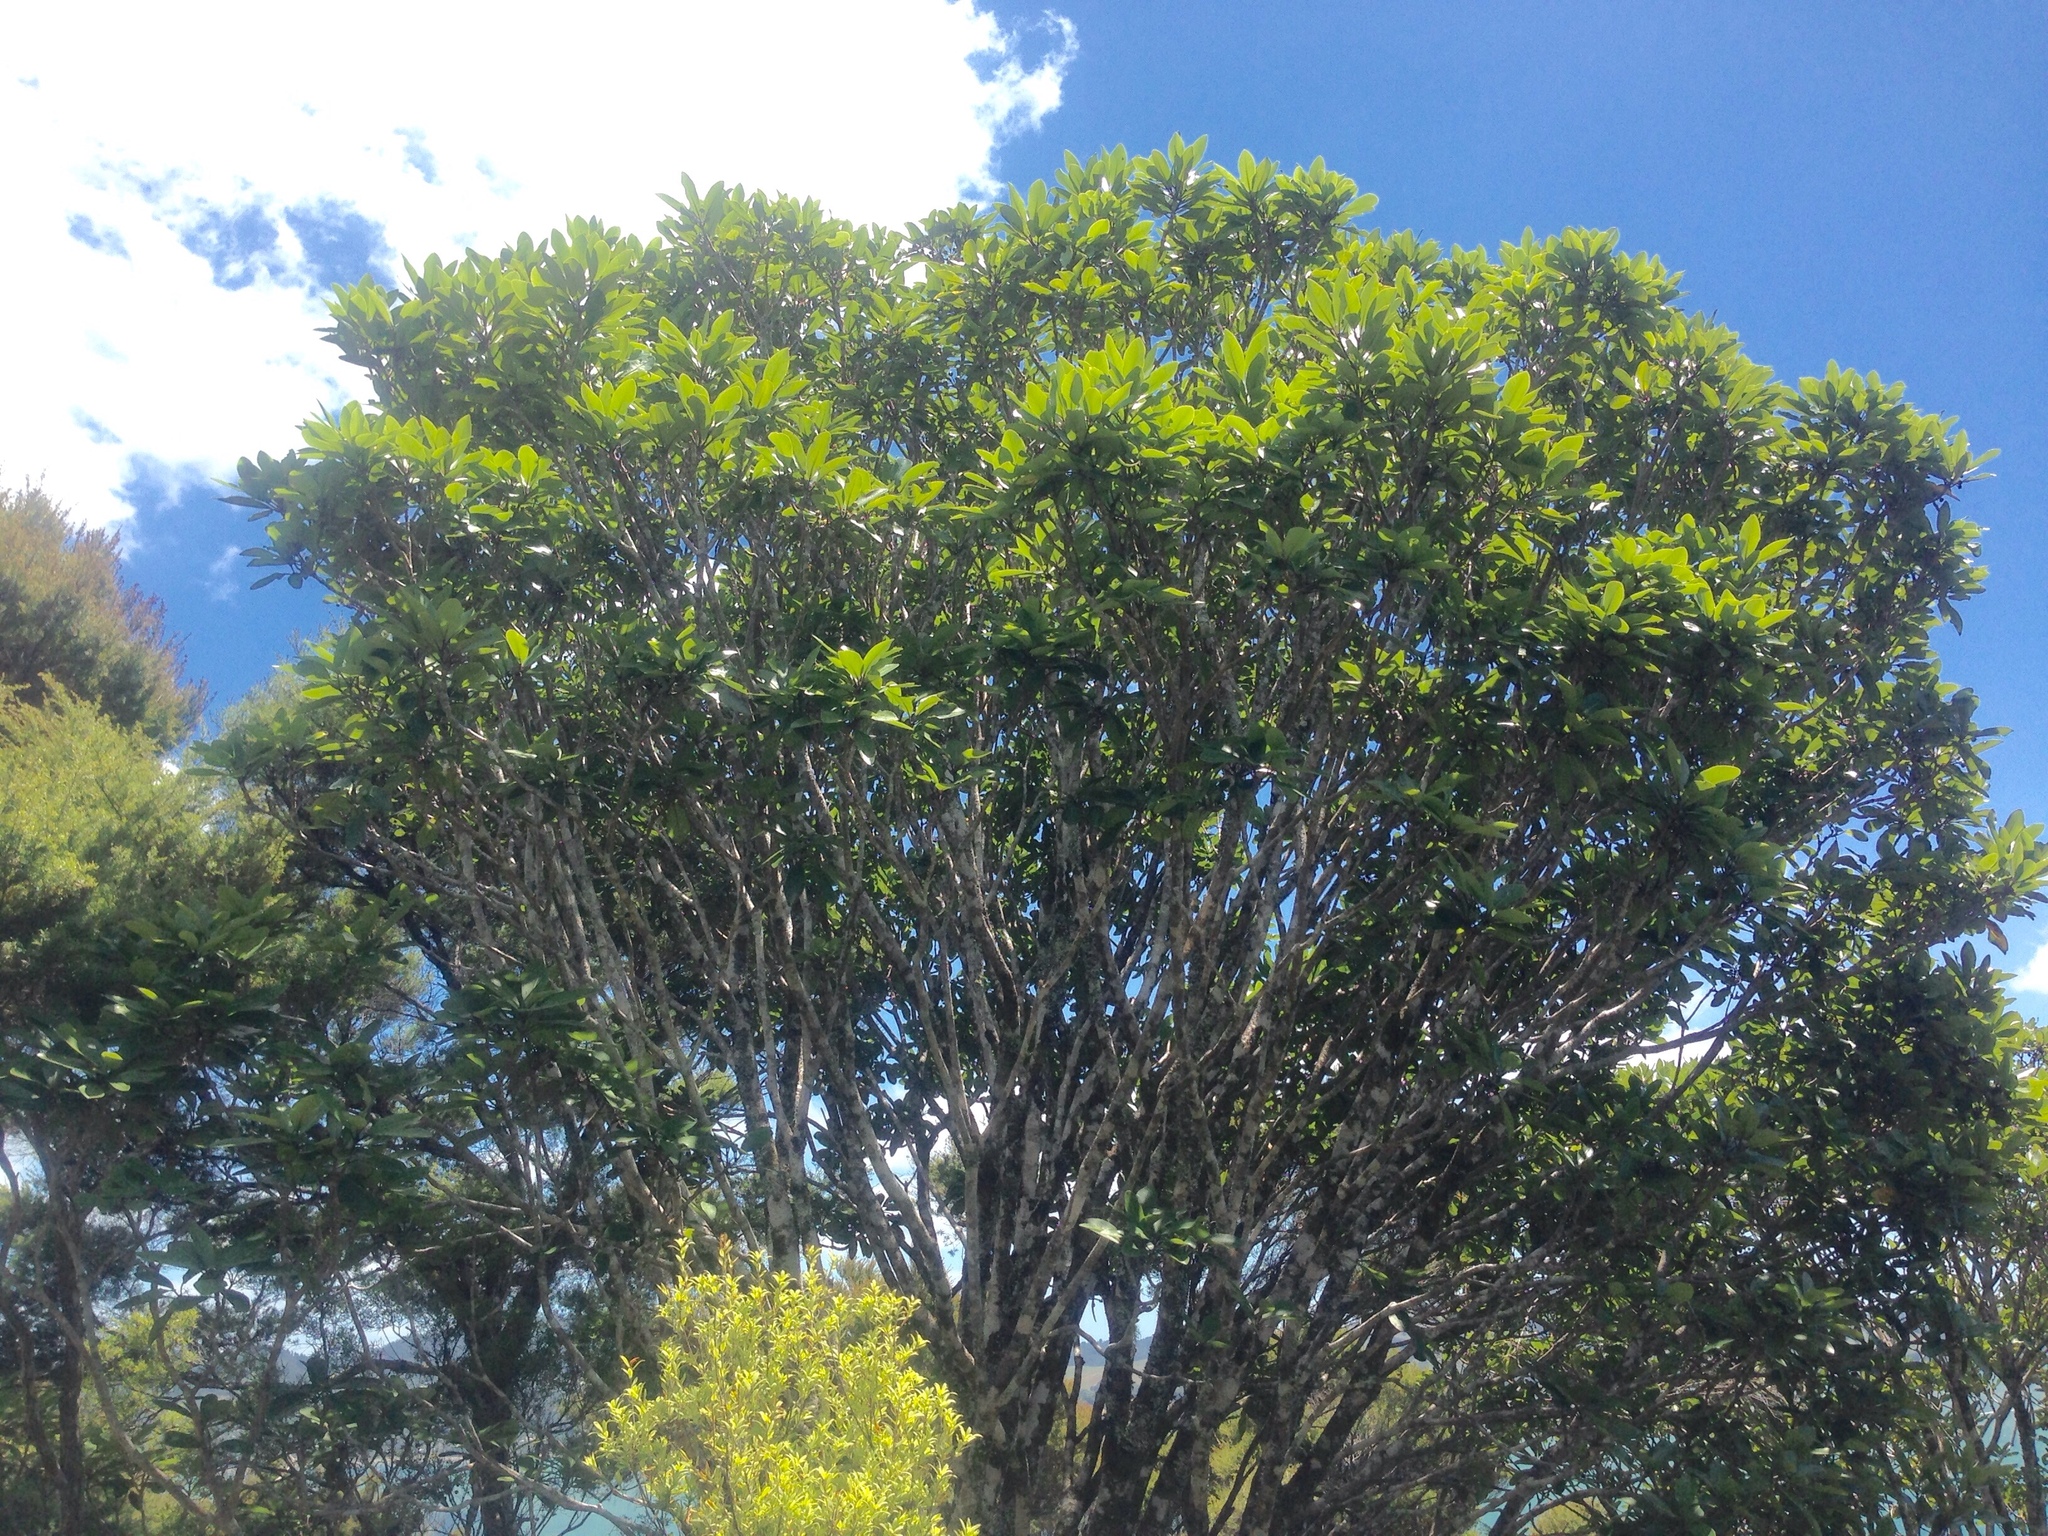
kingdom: Plantae
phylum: Tracheophyta
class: Magnoliopsida
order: Apiales
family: Pittosporaceae
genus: Pittosporum
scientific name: Pittosporum umbellatum
